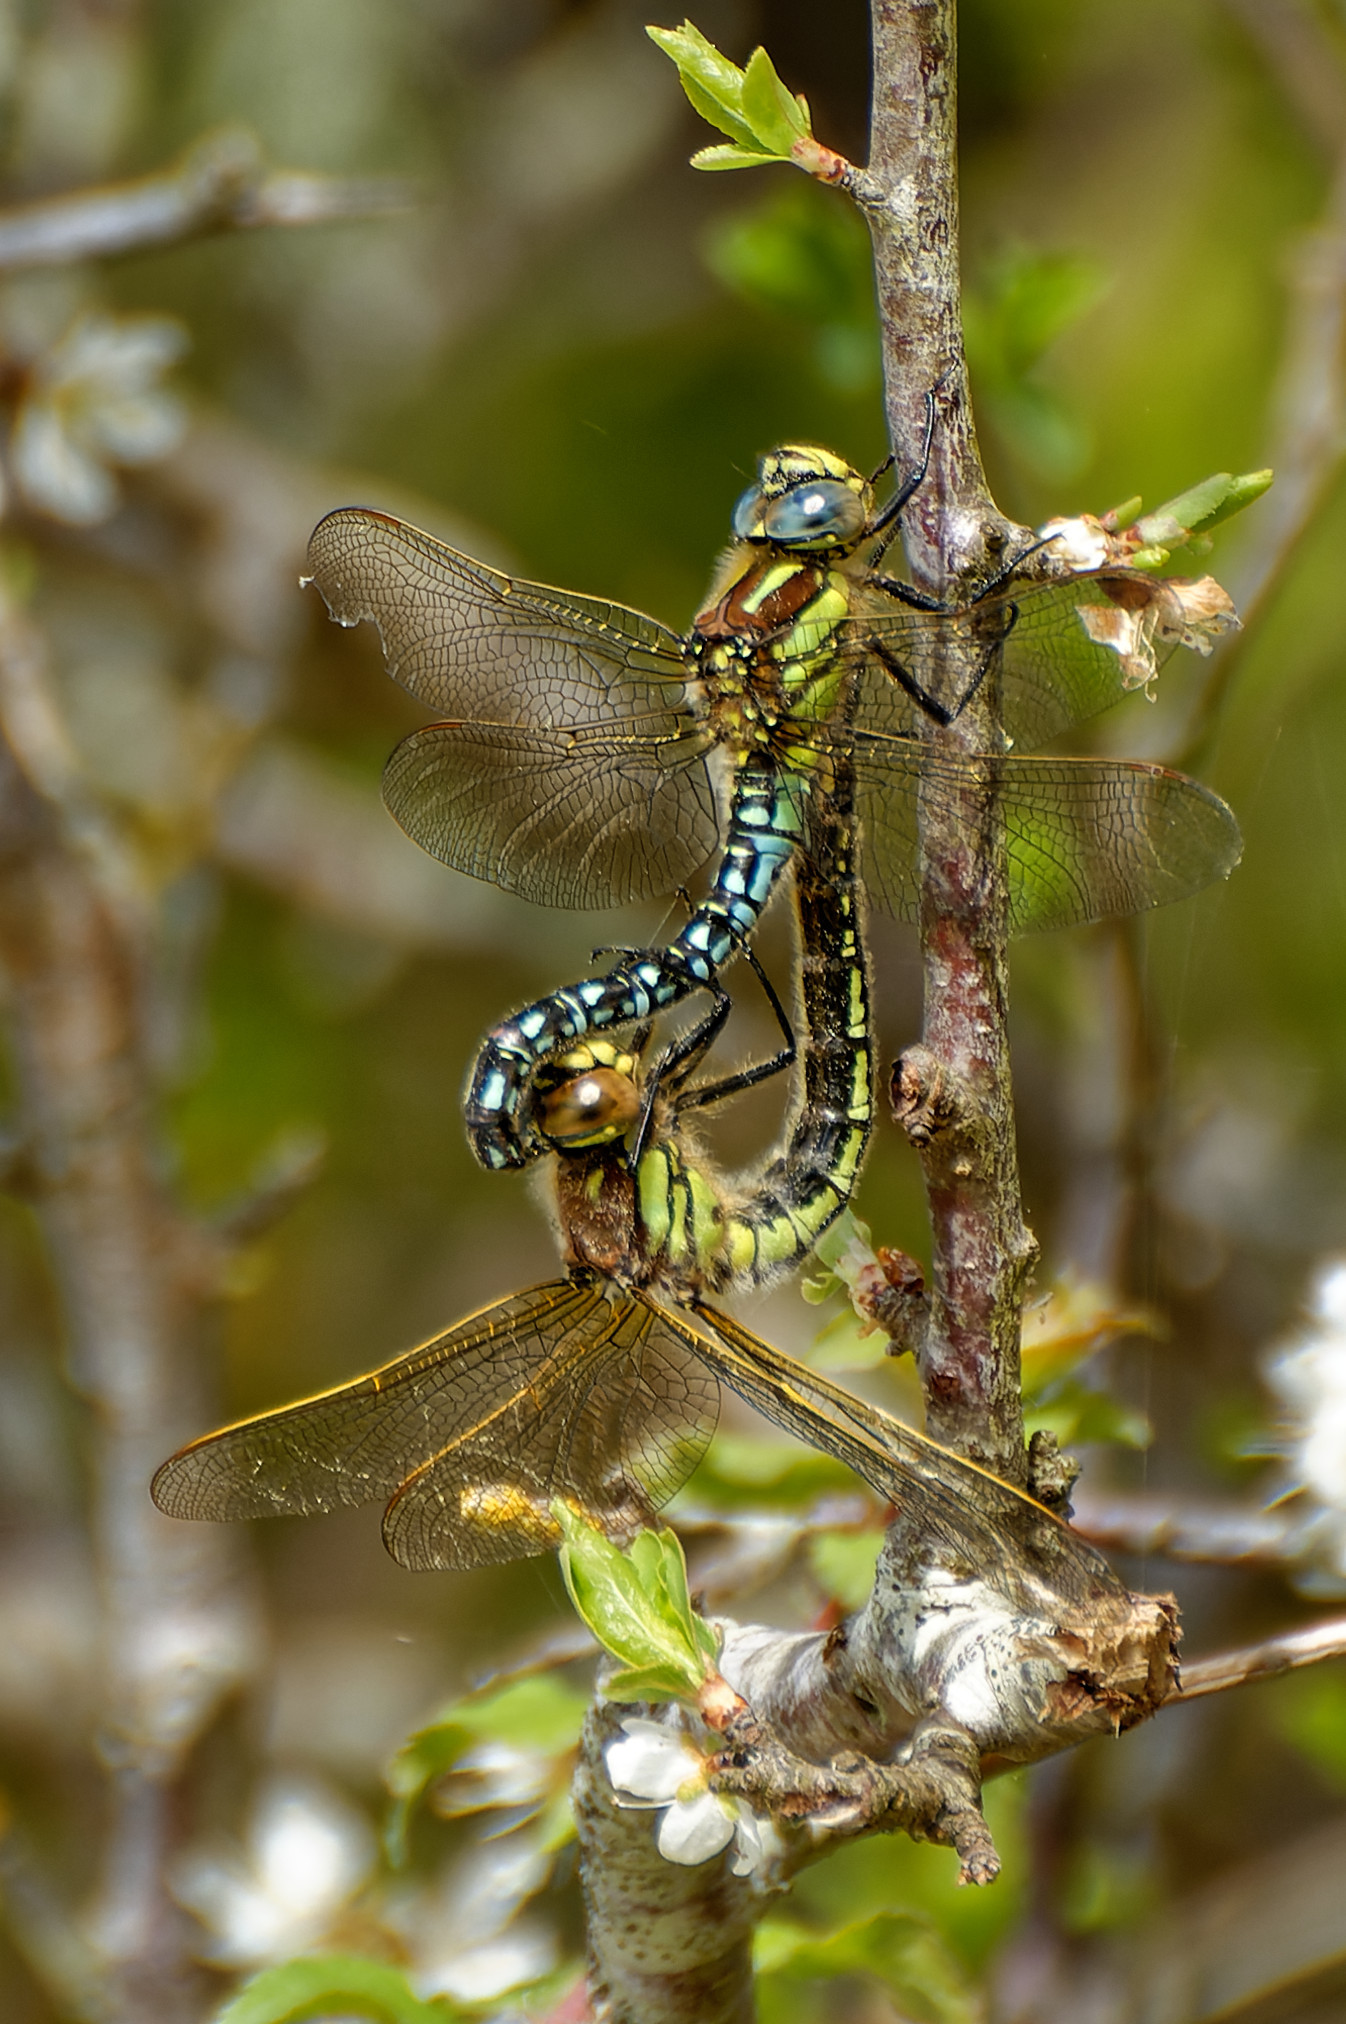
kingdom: Animalia
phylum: Arthropoda
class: Insecta
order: Odonata
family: Aeshnidae
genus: Brachytron
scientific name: Brachytron pratense
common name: Hairy hawker
